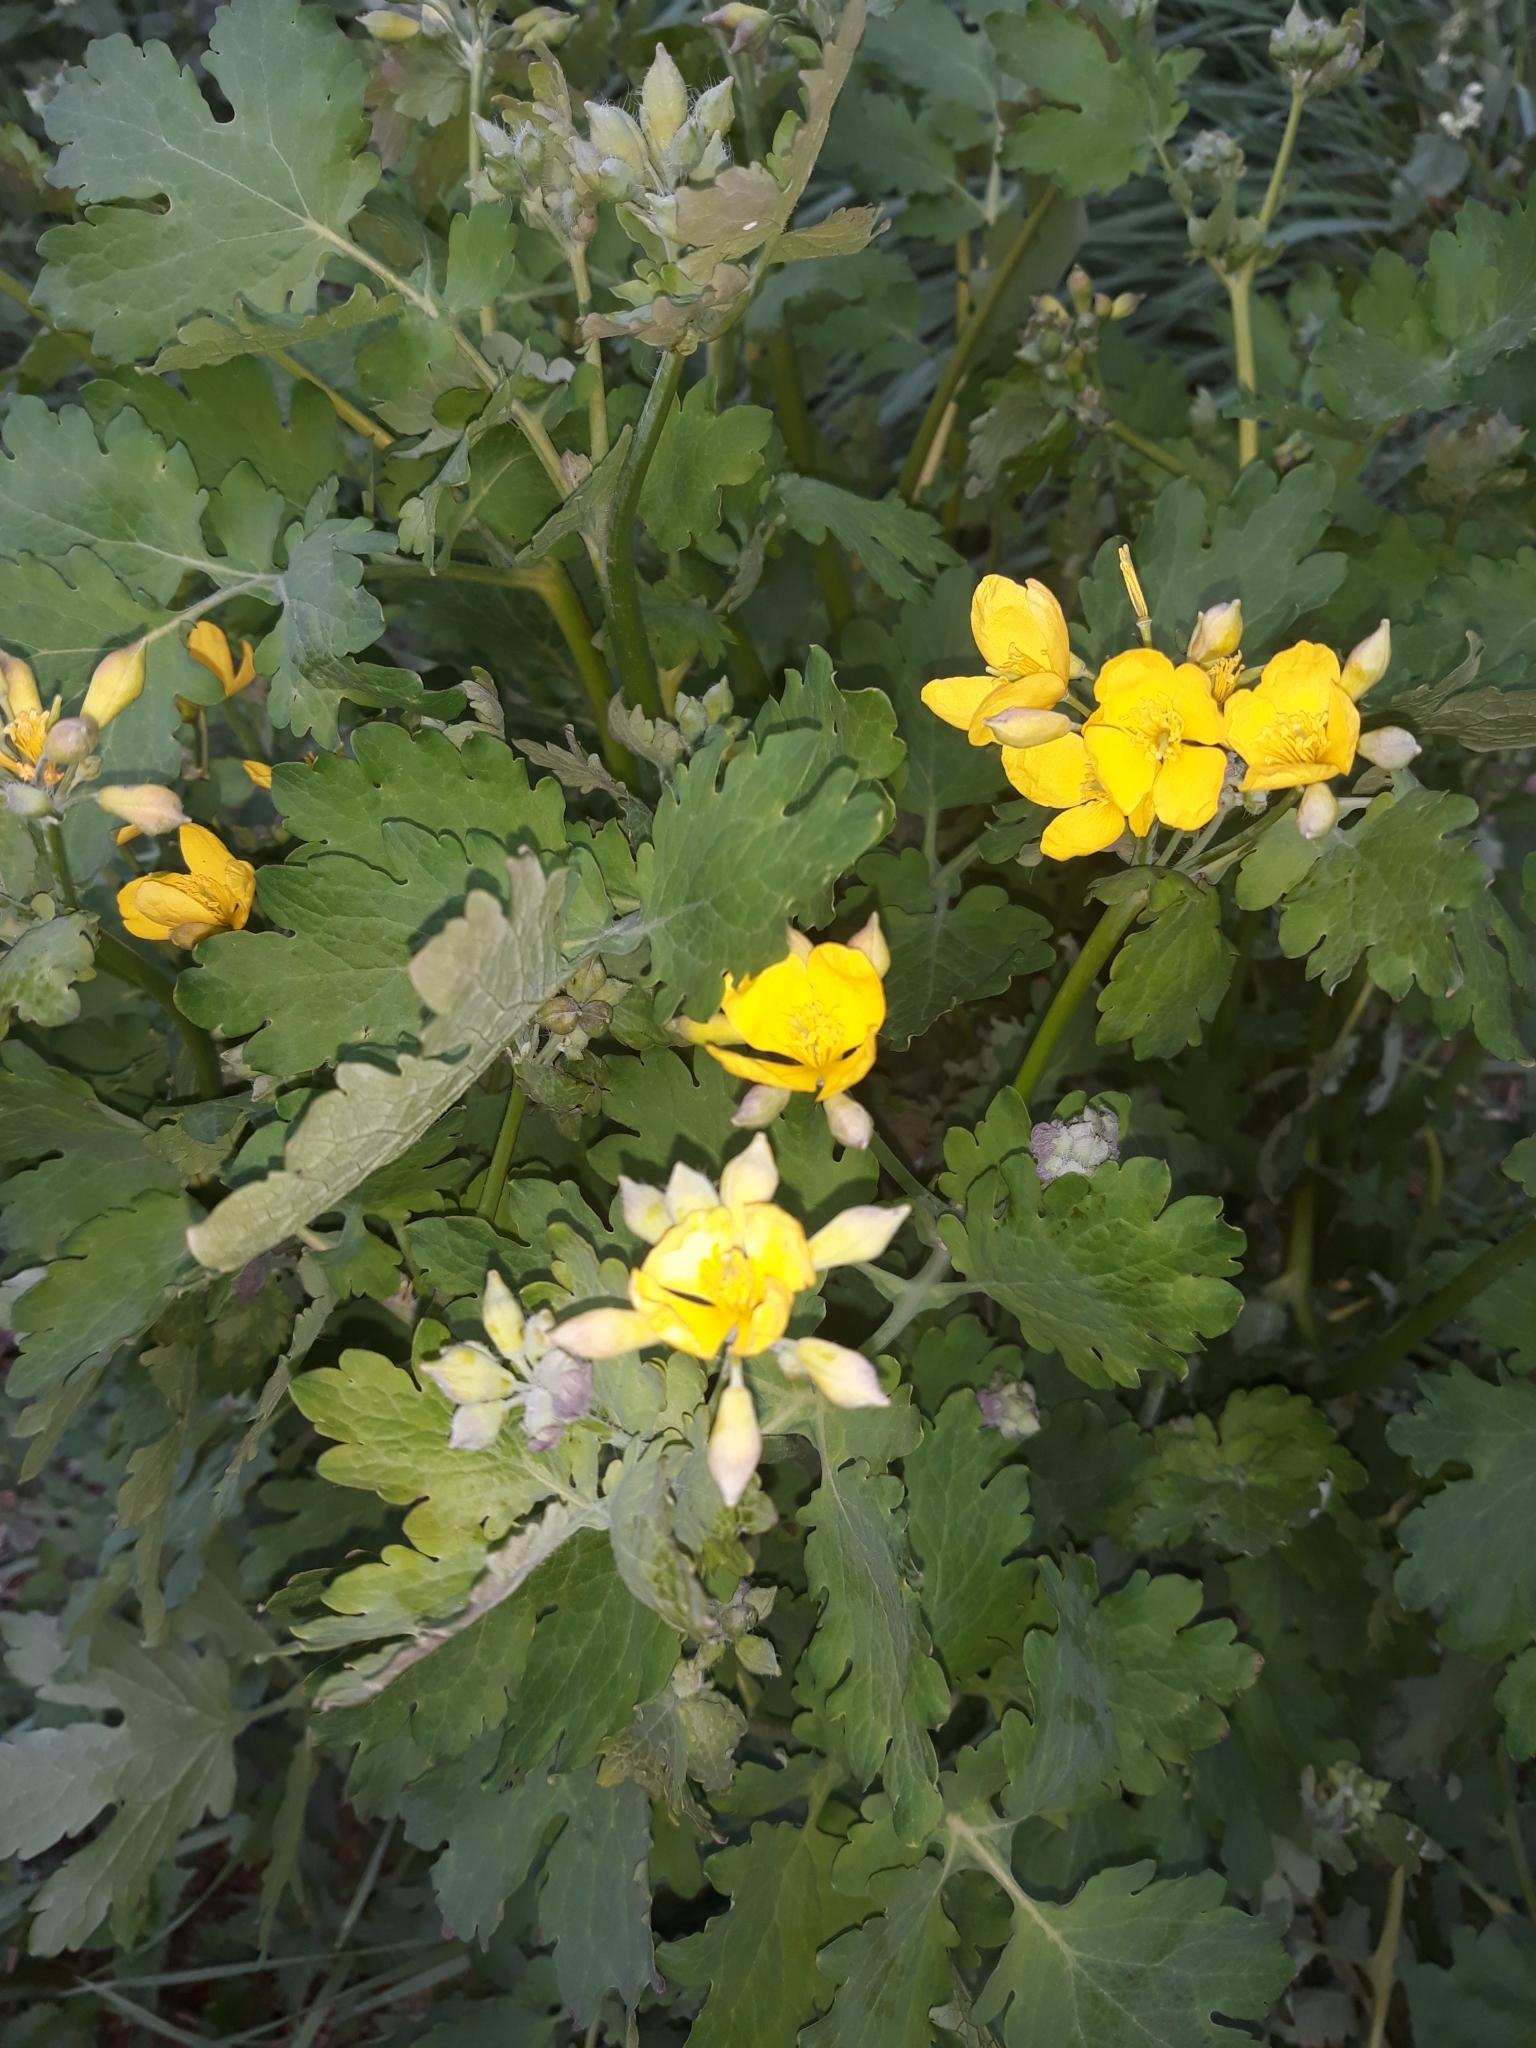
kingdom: Plantae
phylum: Tracheophyta
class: Magnoliopsida
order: Ranunculales
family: Papaveraceae
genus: Chelidonium
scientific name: Chelidonium majus
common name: Greater celandine
